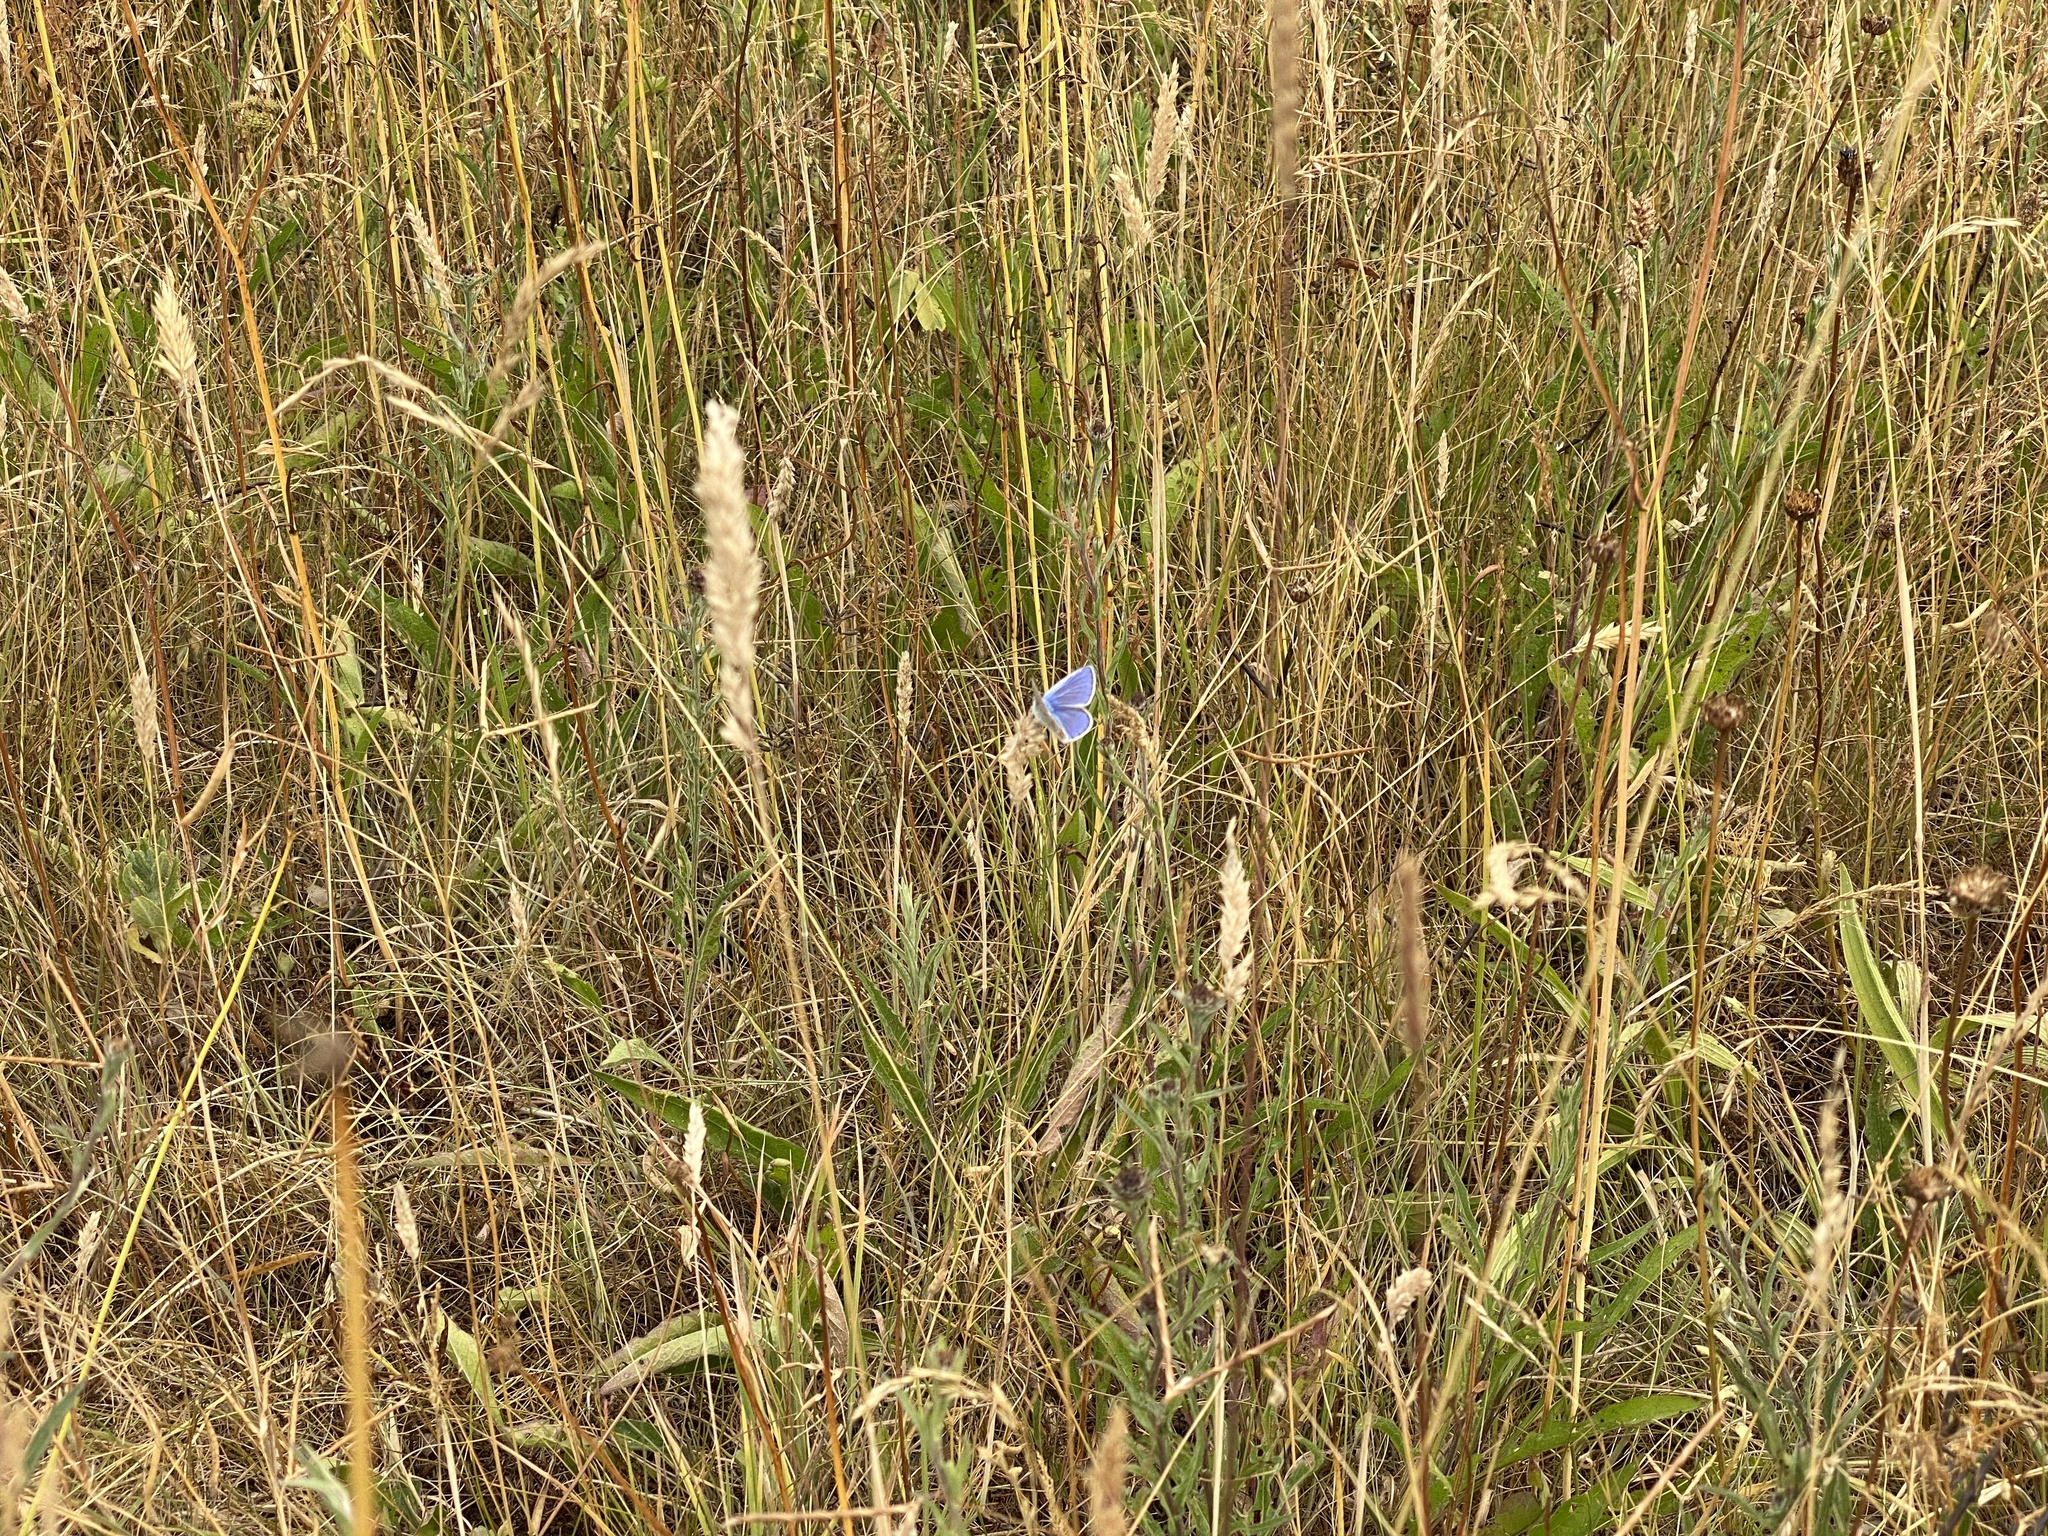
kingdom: Animalia
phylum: Arthropoda
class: Insecta
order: Lepidoptera
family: Lycaenidae
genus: Polyommatus
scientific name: Polyommatus icarus
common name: Common blue
